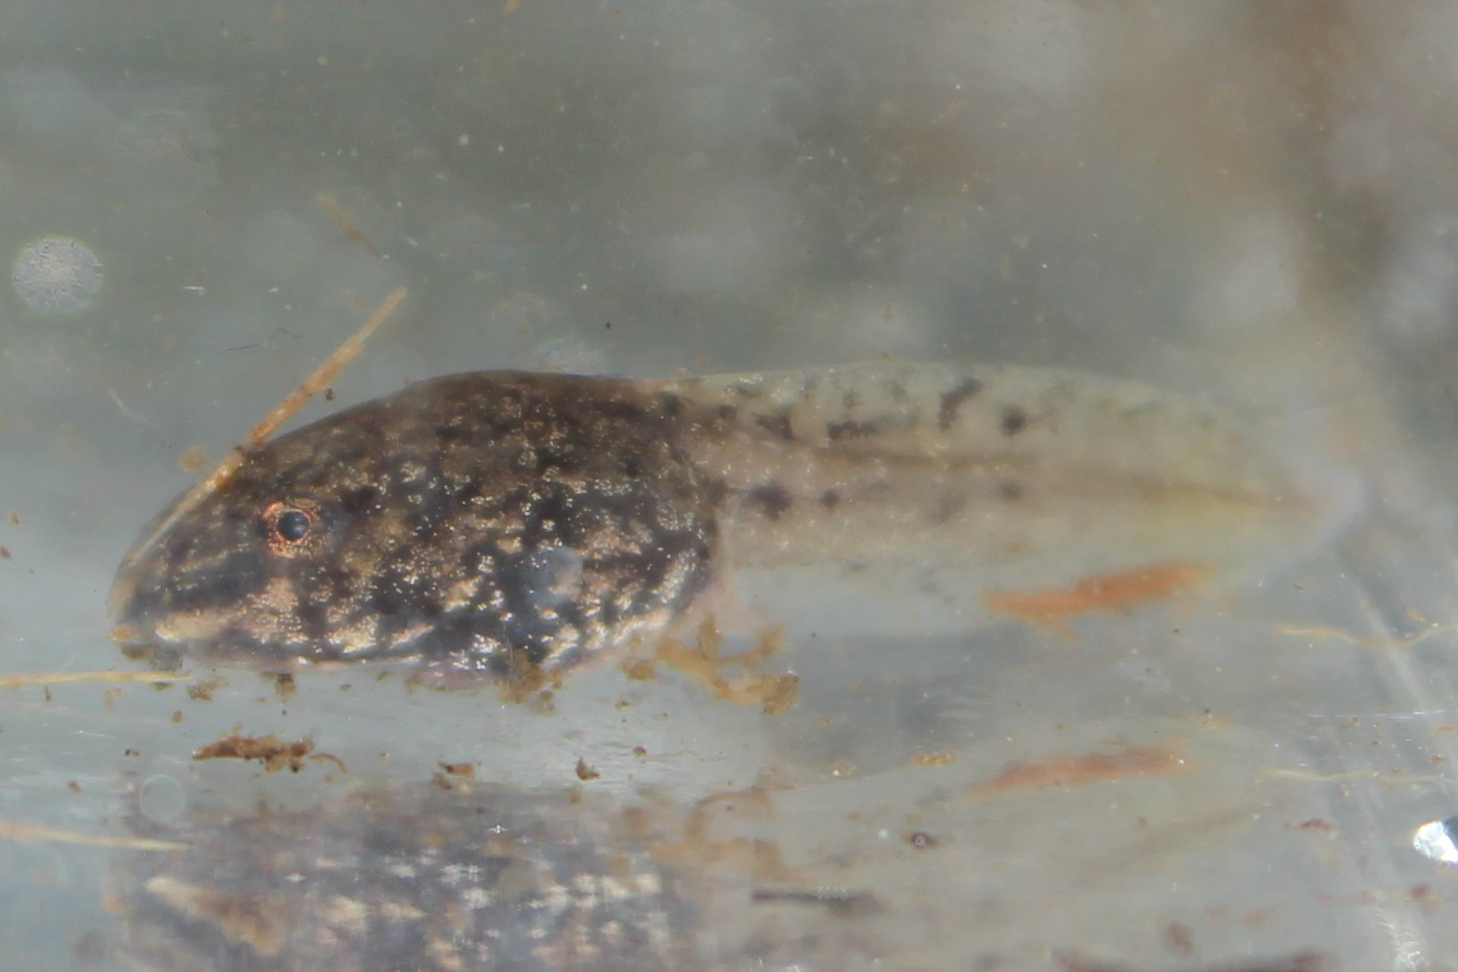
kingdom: Animalia
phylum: Chordata
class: Amphibia
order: Anura
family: Ranidae
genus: Lithobates
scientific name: Lithobates catesbeianus
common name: American bullfrog
